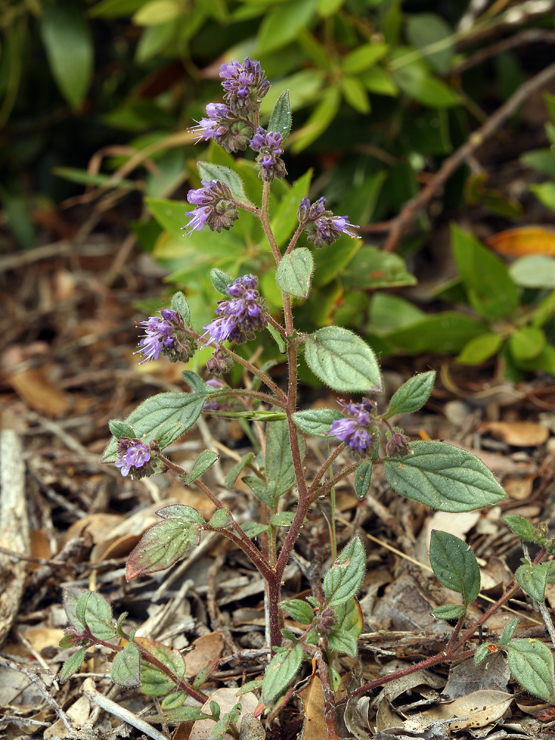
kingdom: Plantae
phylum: Tracheophyta
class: Magnoliopsida
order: Boraginales
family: Hydrophyllaceae
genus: Phacelia
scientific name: Phacelia marcescens
